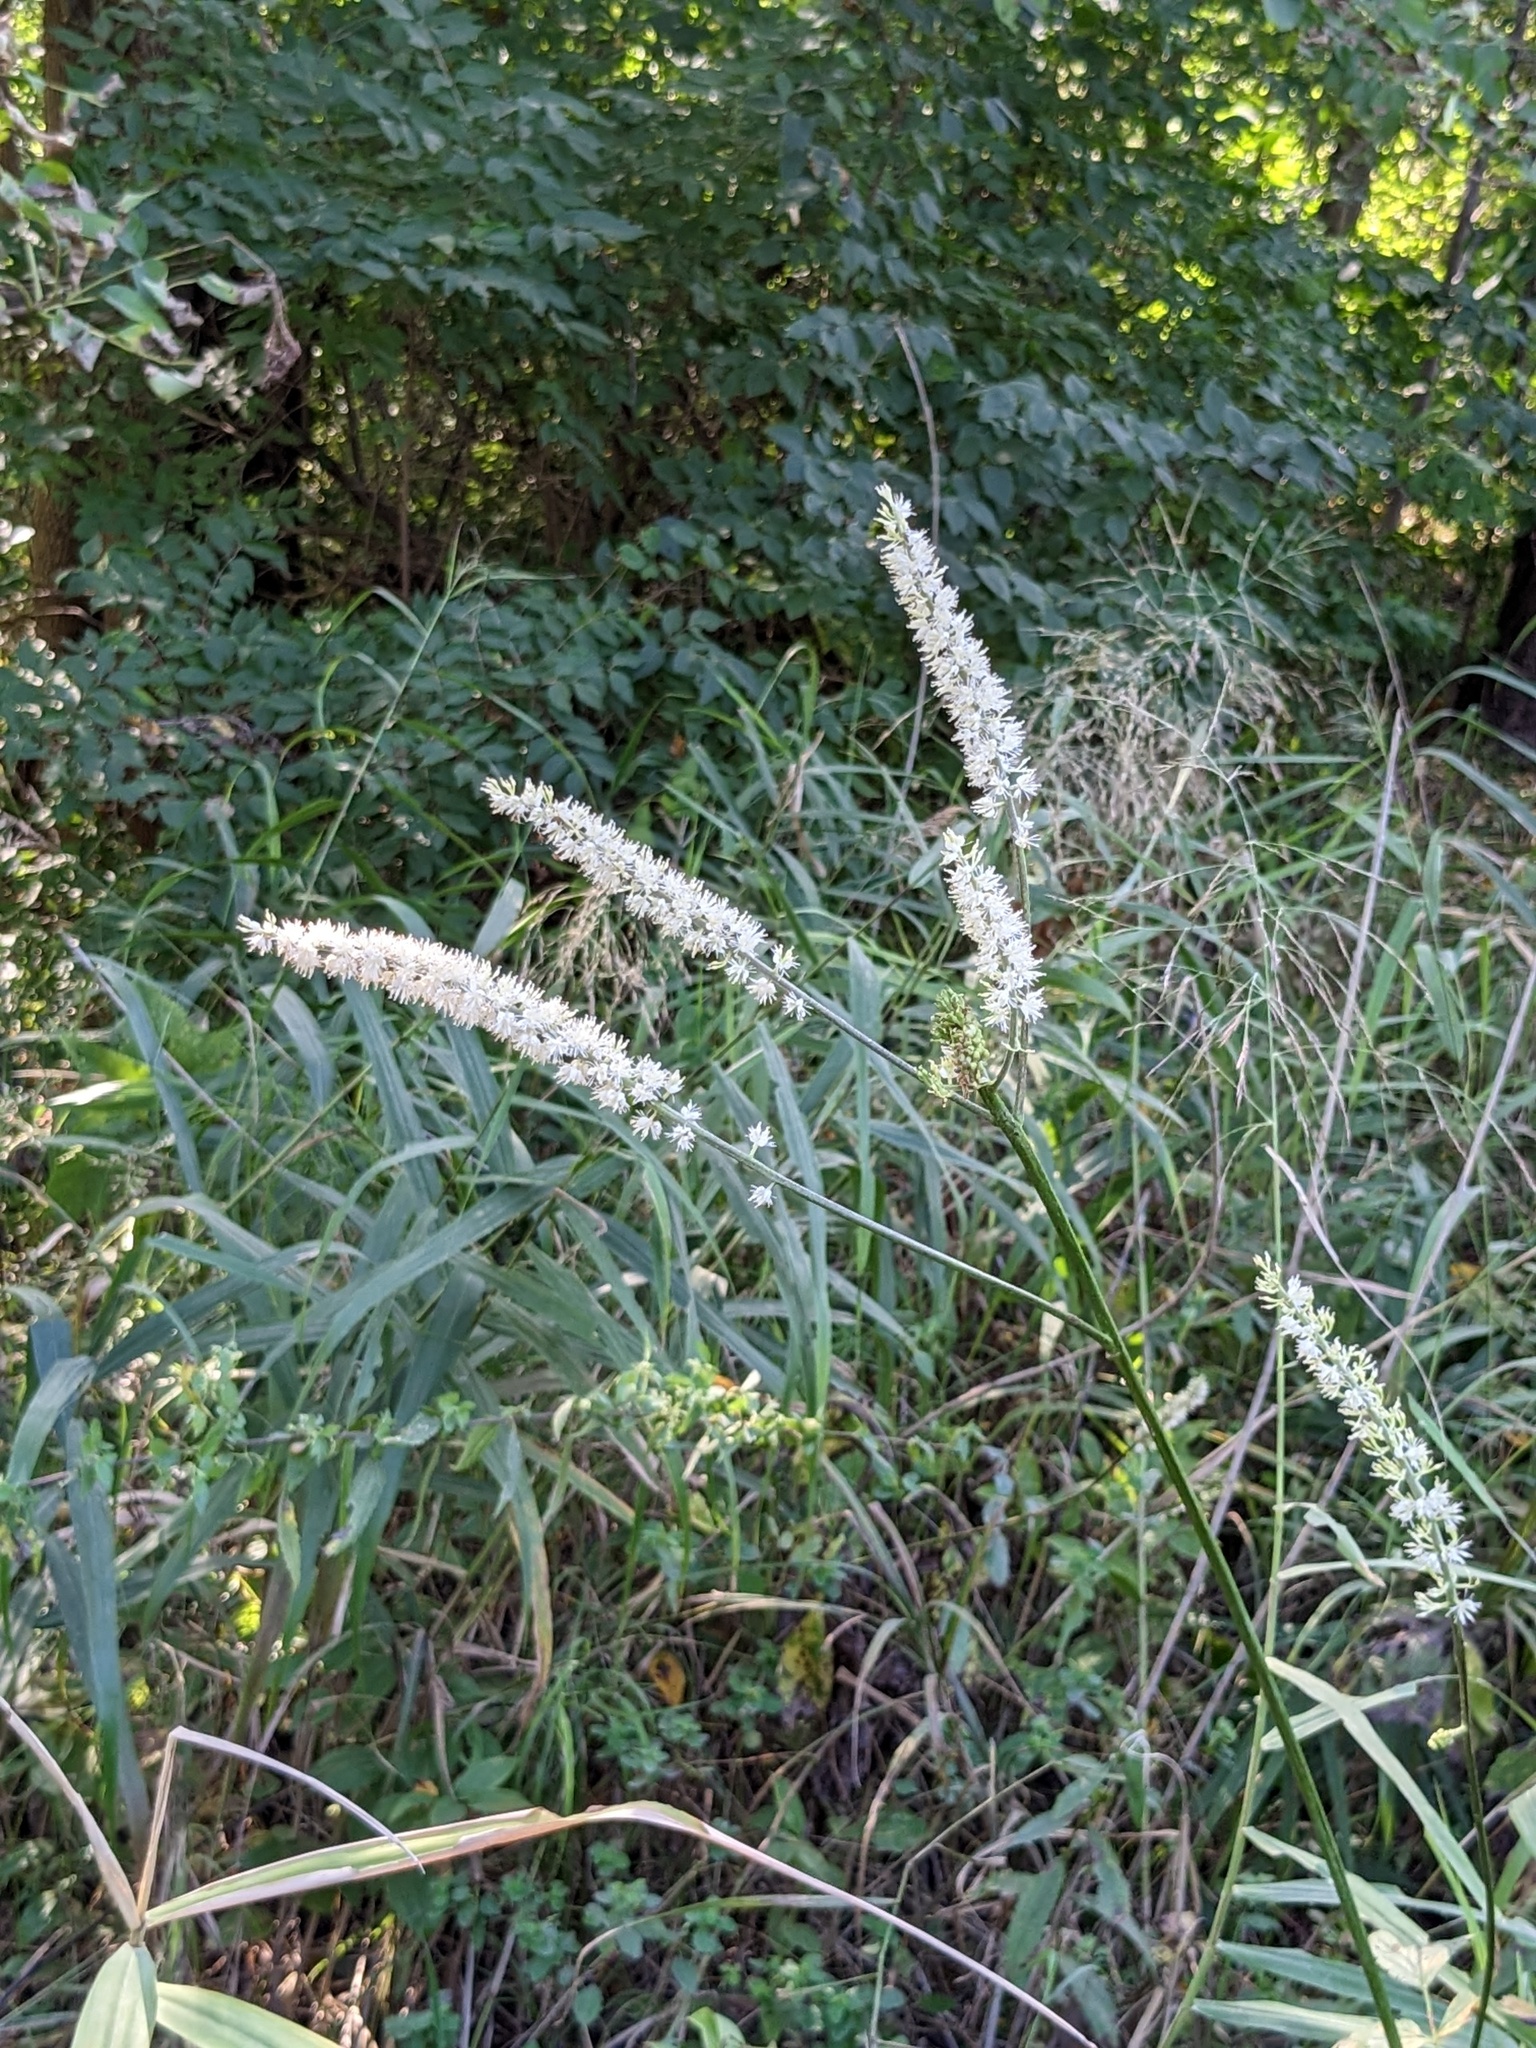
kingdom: Plantae
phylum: Tracheophyta
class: Magnoliopsida
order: Ranunculales
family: Ranunculaceae
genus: Actaea
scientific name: Actaea simplex
